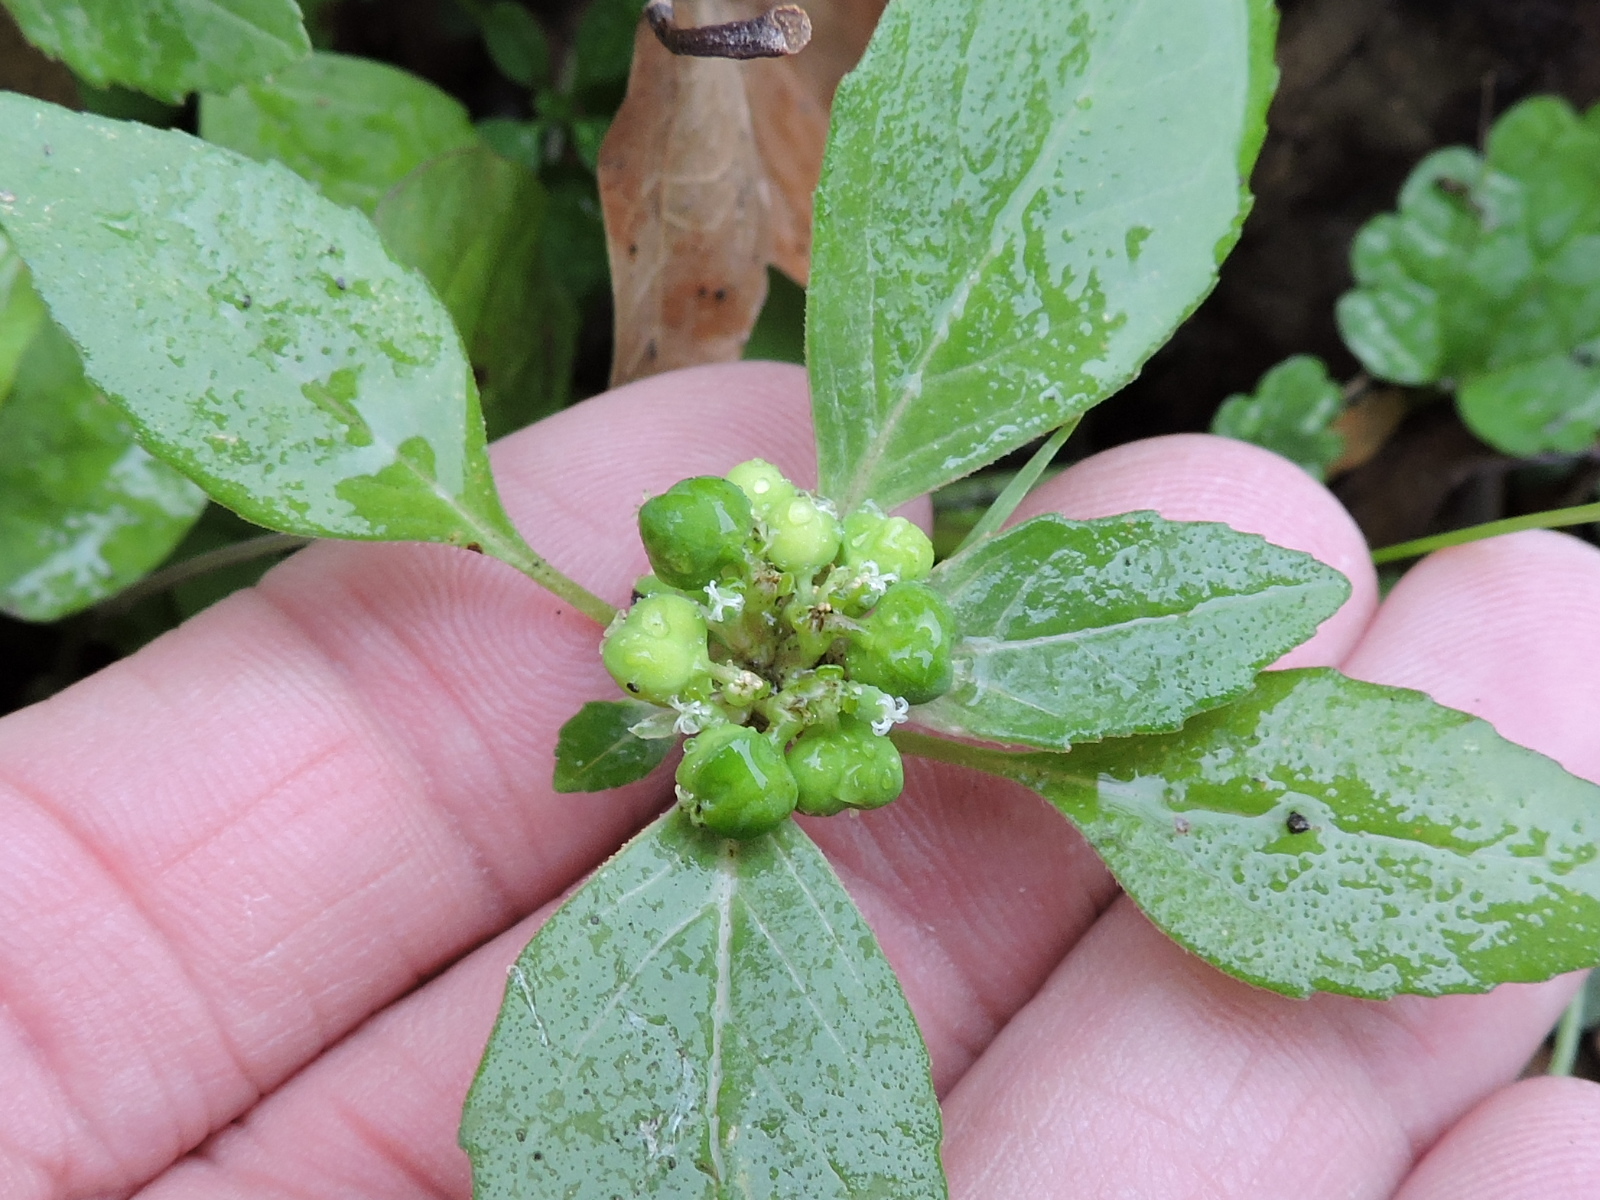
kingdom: Plantae
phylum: Tracheophyta
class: Magnoliopsida
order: Malpighiales
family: Euphorbiaceae
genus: Euphorbia
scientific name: Euphorbia dentata
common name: Dentate spurge
